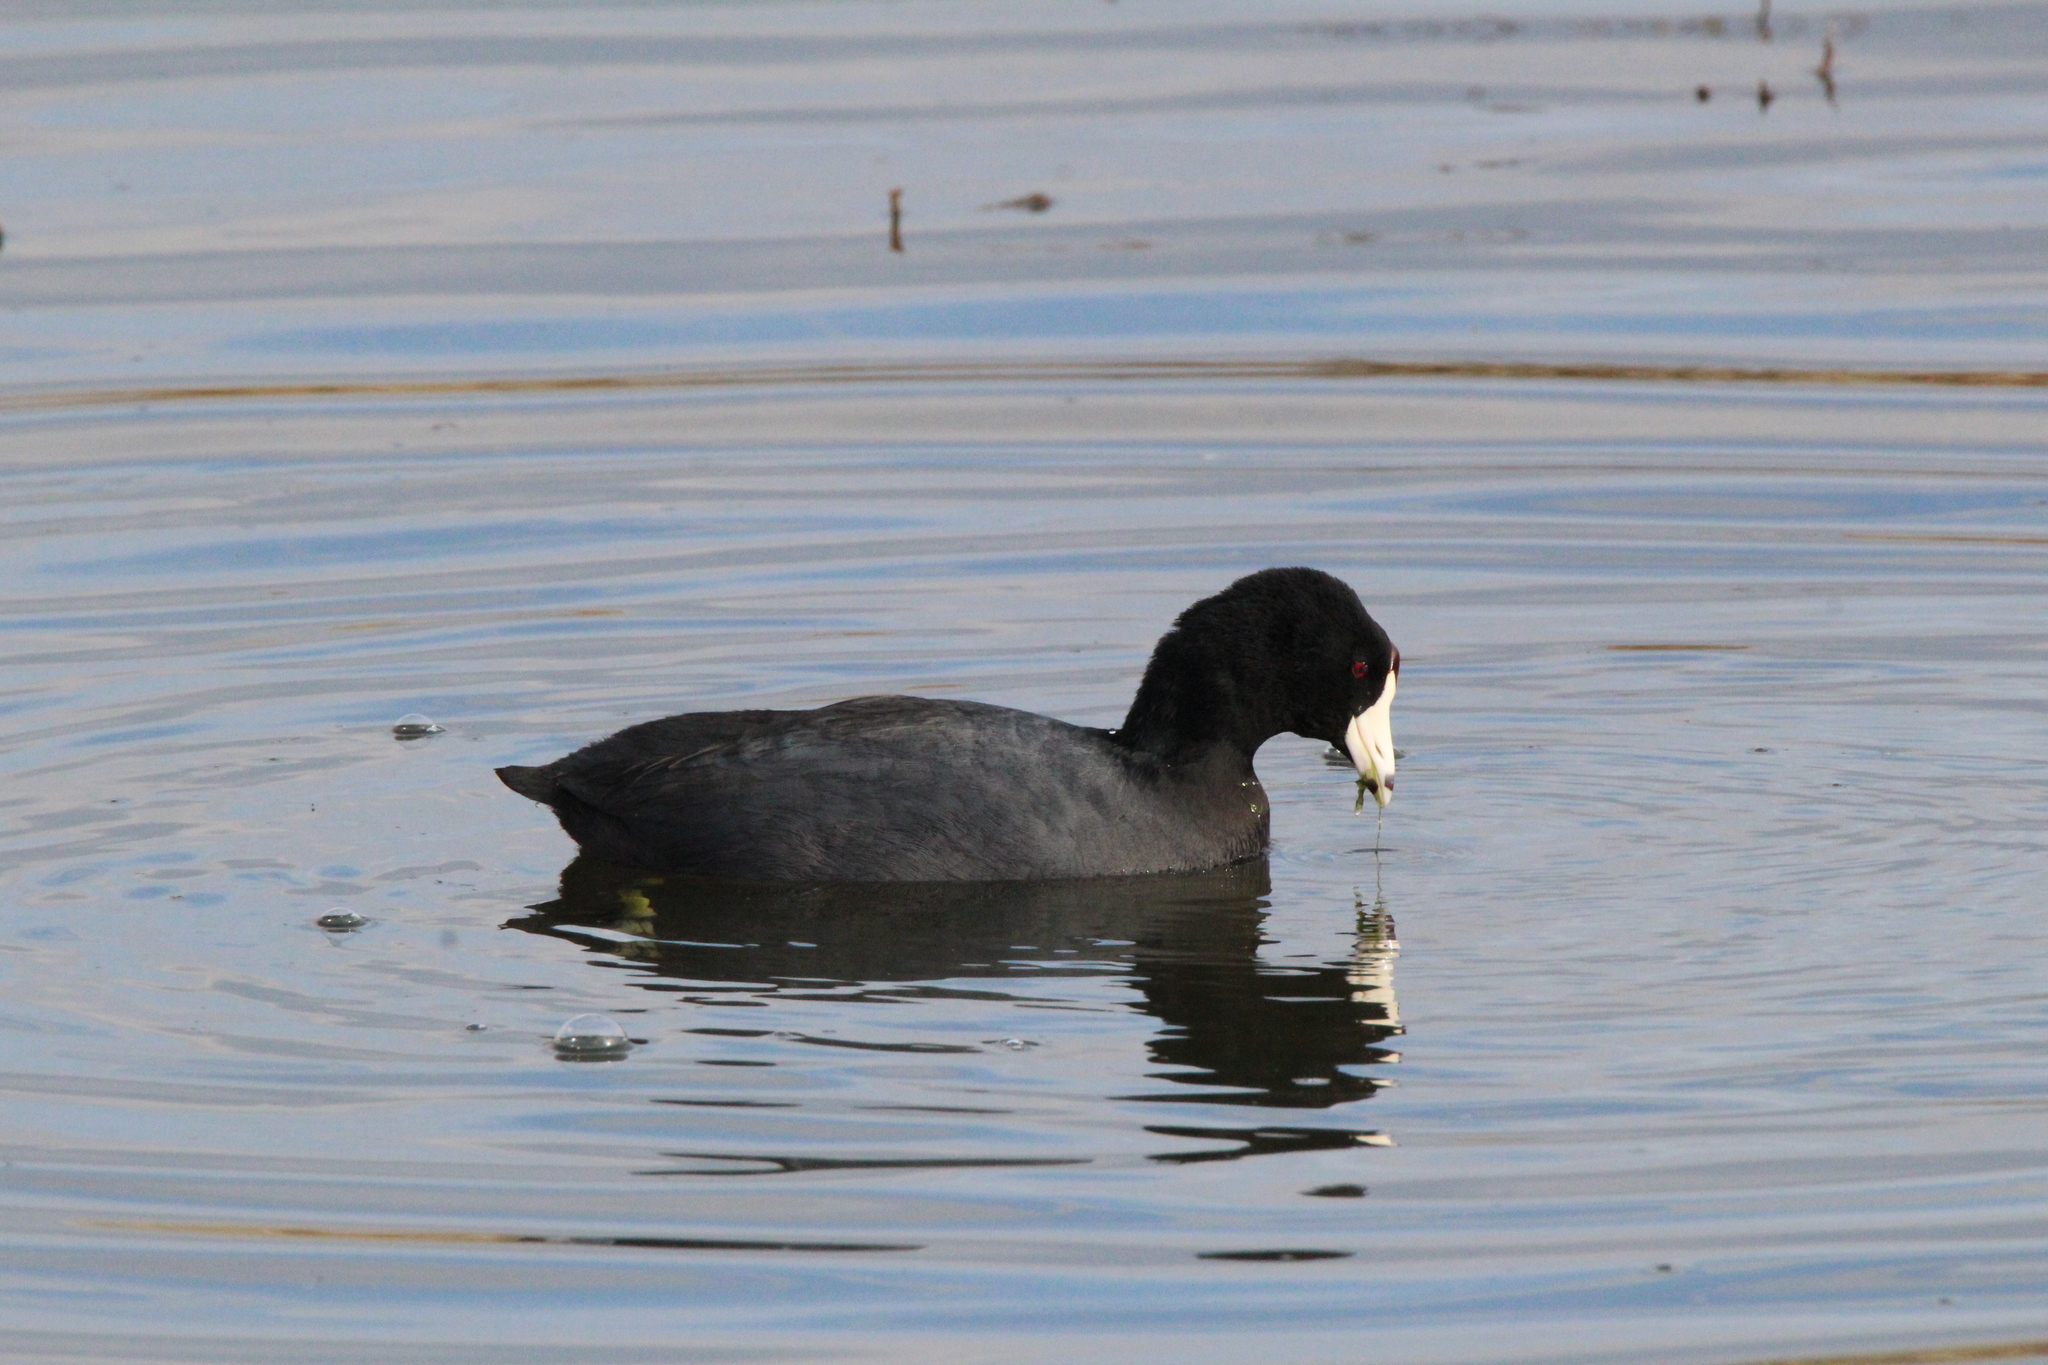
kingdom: Animalia
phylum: Chordata
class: Aves
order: Gruiformes
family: Rallidae
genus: Fulica
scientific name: Fulica americana
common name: American coot
